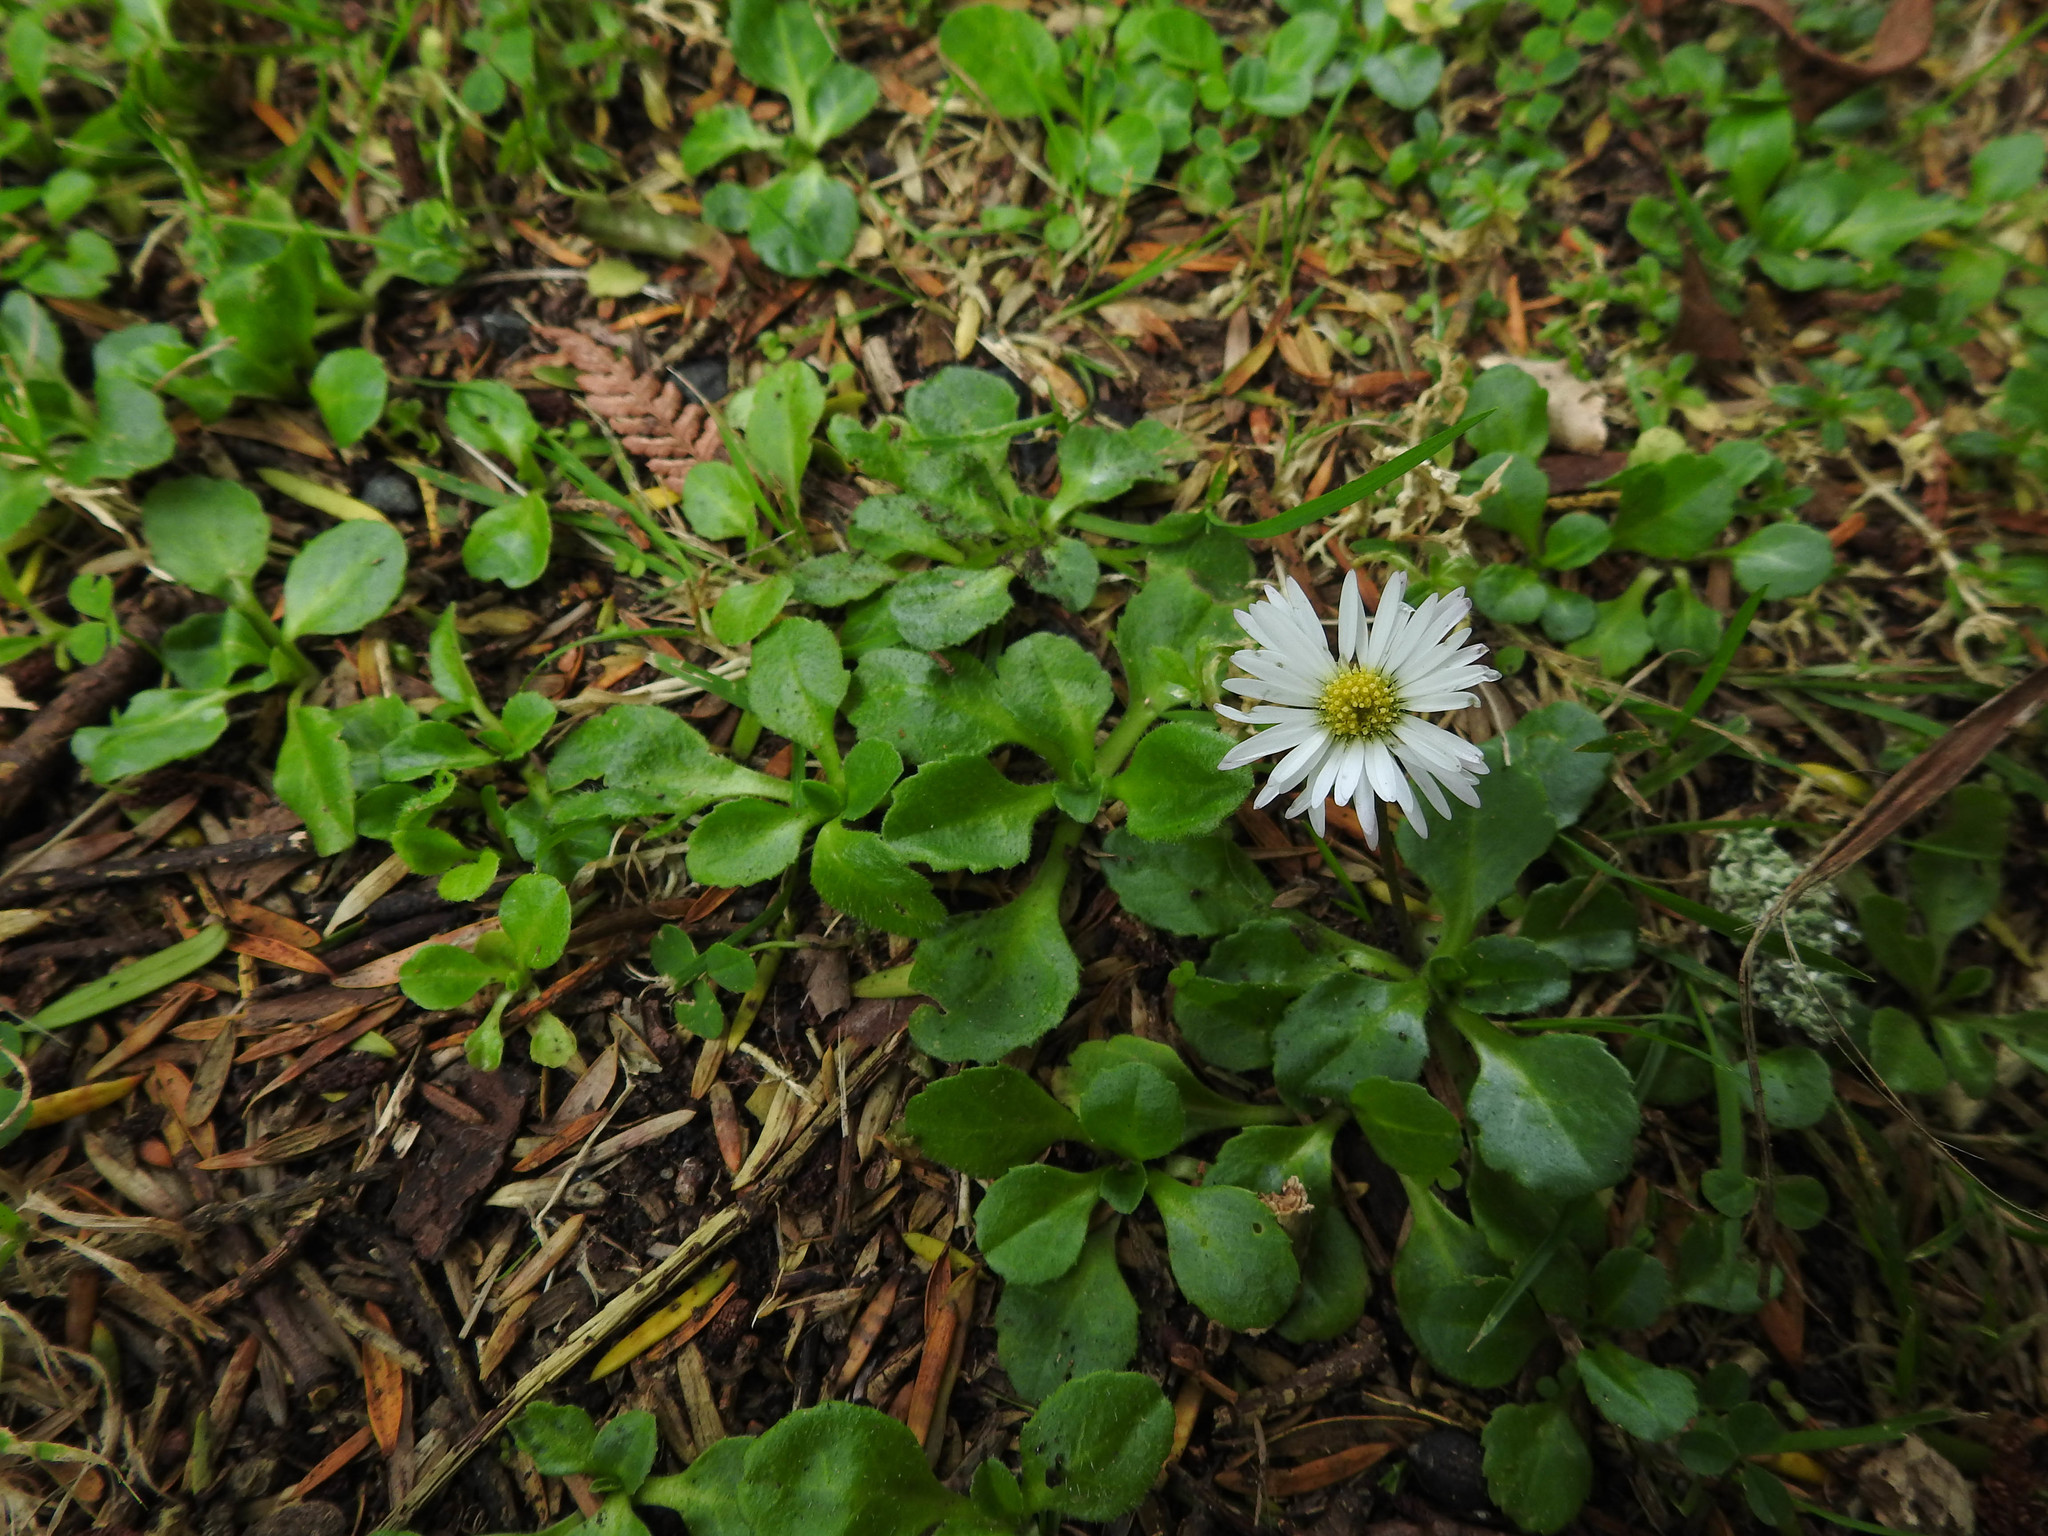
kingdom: Plantae
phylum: Tracheophyta
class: Magnoliopsida
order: Asterales
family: Asteraceae
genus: Bellis
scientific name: Bellis perennis
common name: Lawndaisy
